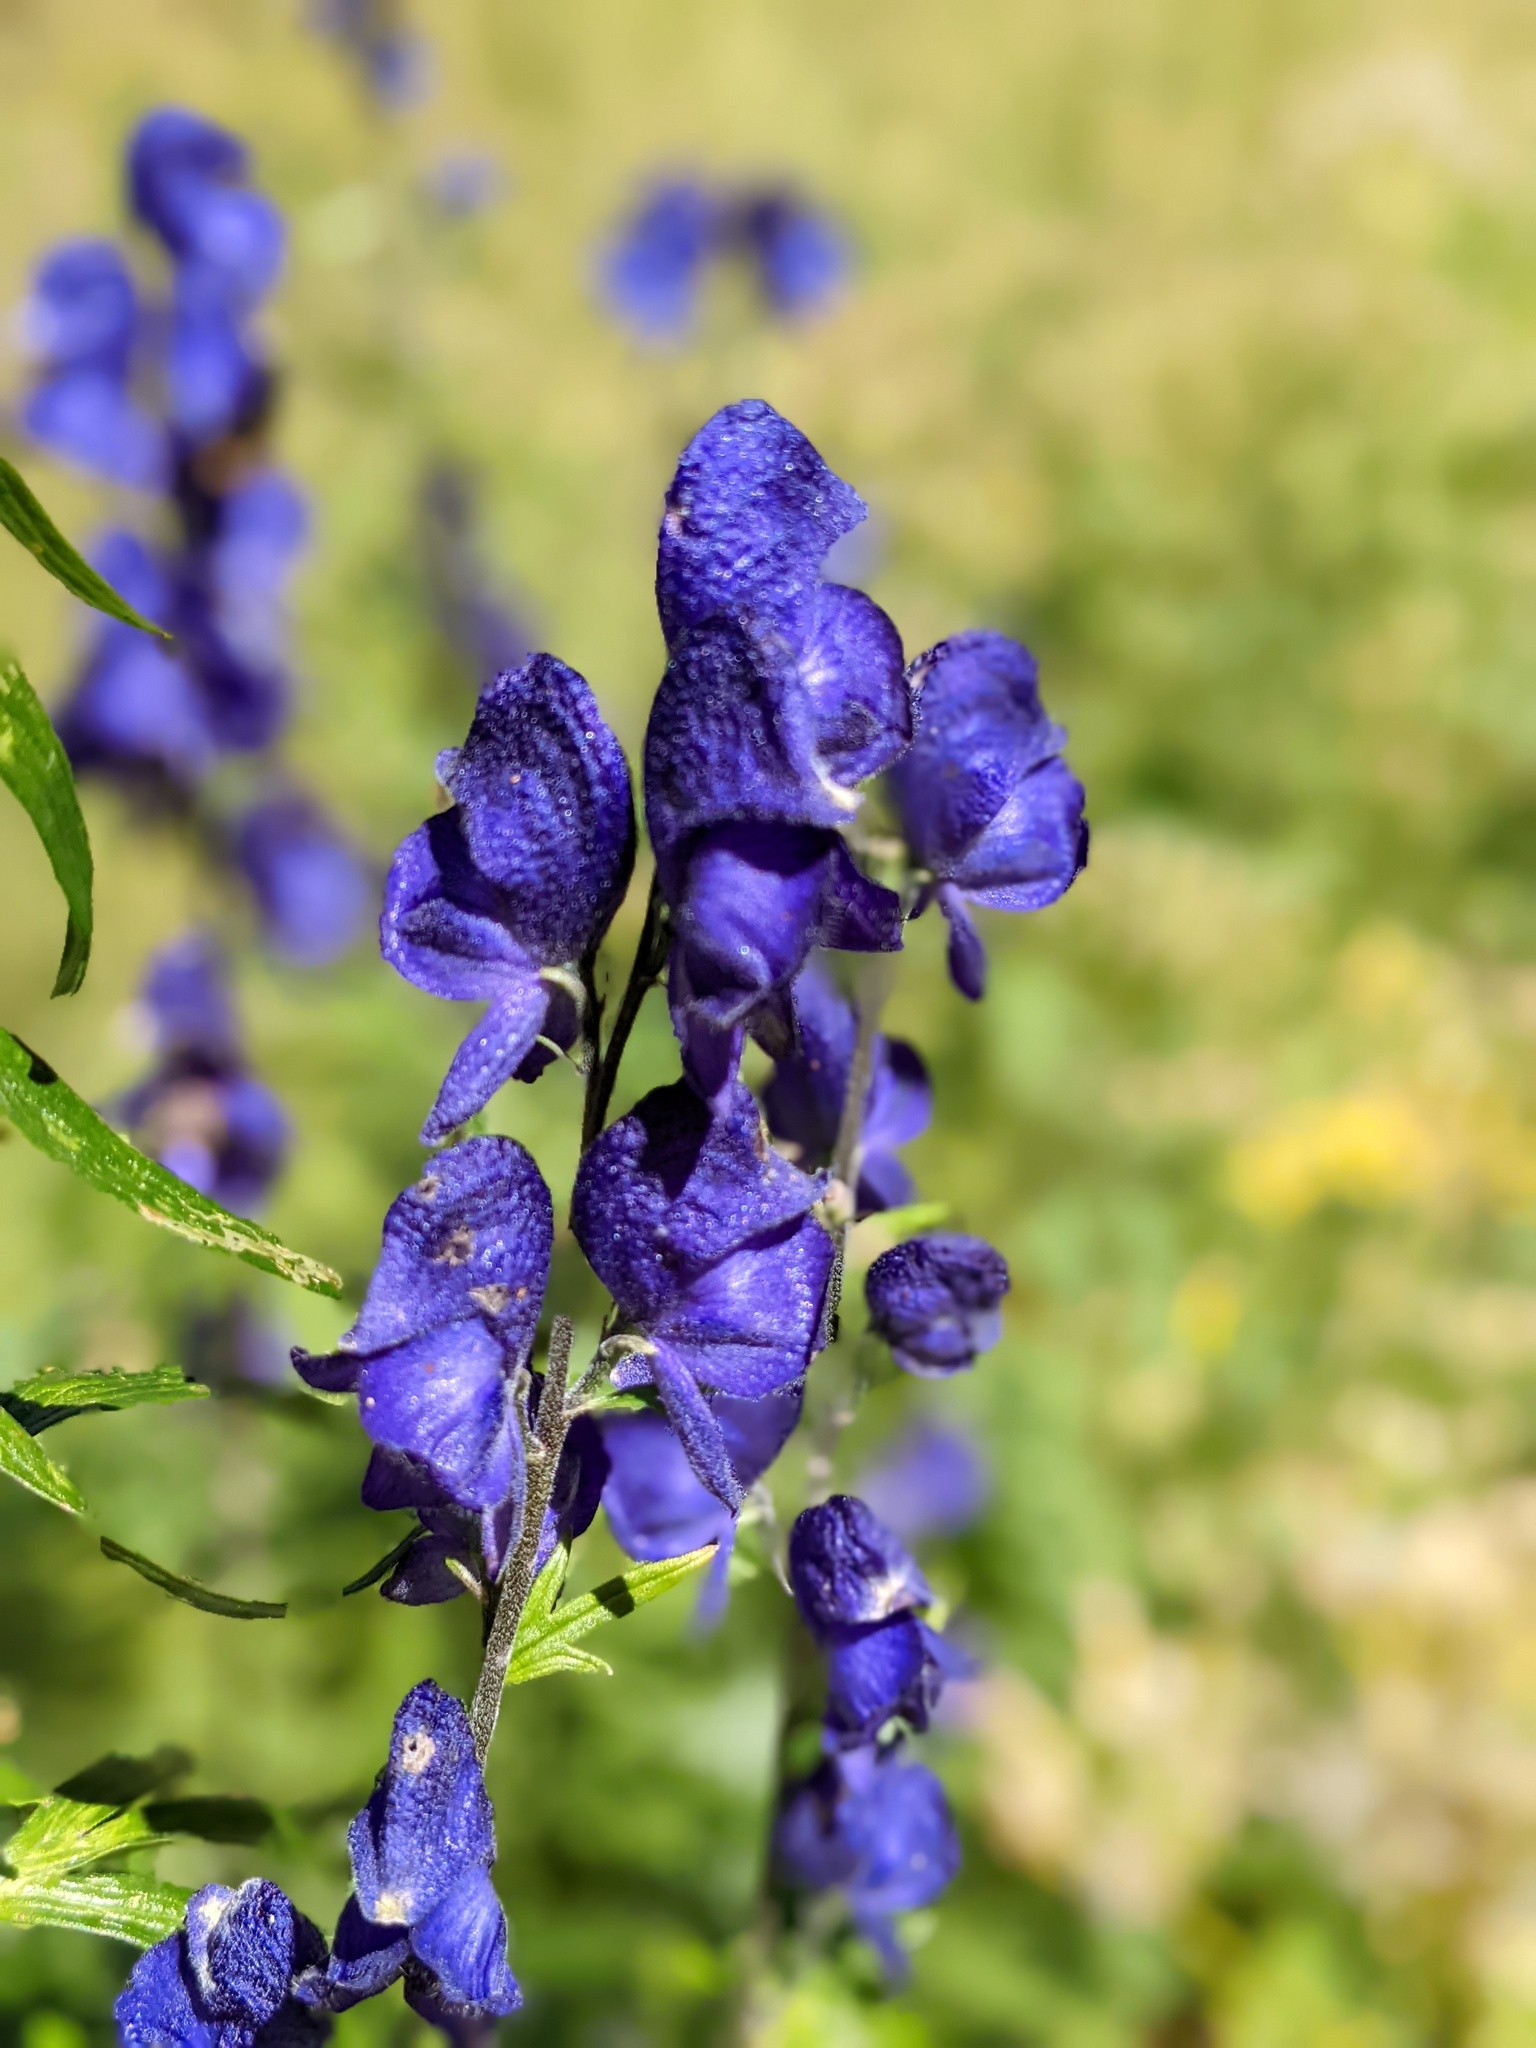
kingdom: Plantae
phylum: Tracheophyta
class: Magnoliopsida
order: Ranunculales
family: Ranunculaceae
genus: Aconitum
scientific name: Aconitum napellus
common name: Garden monkshood
